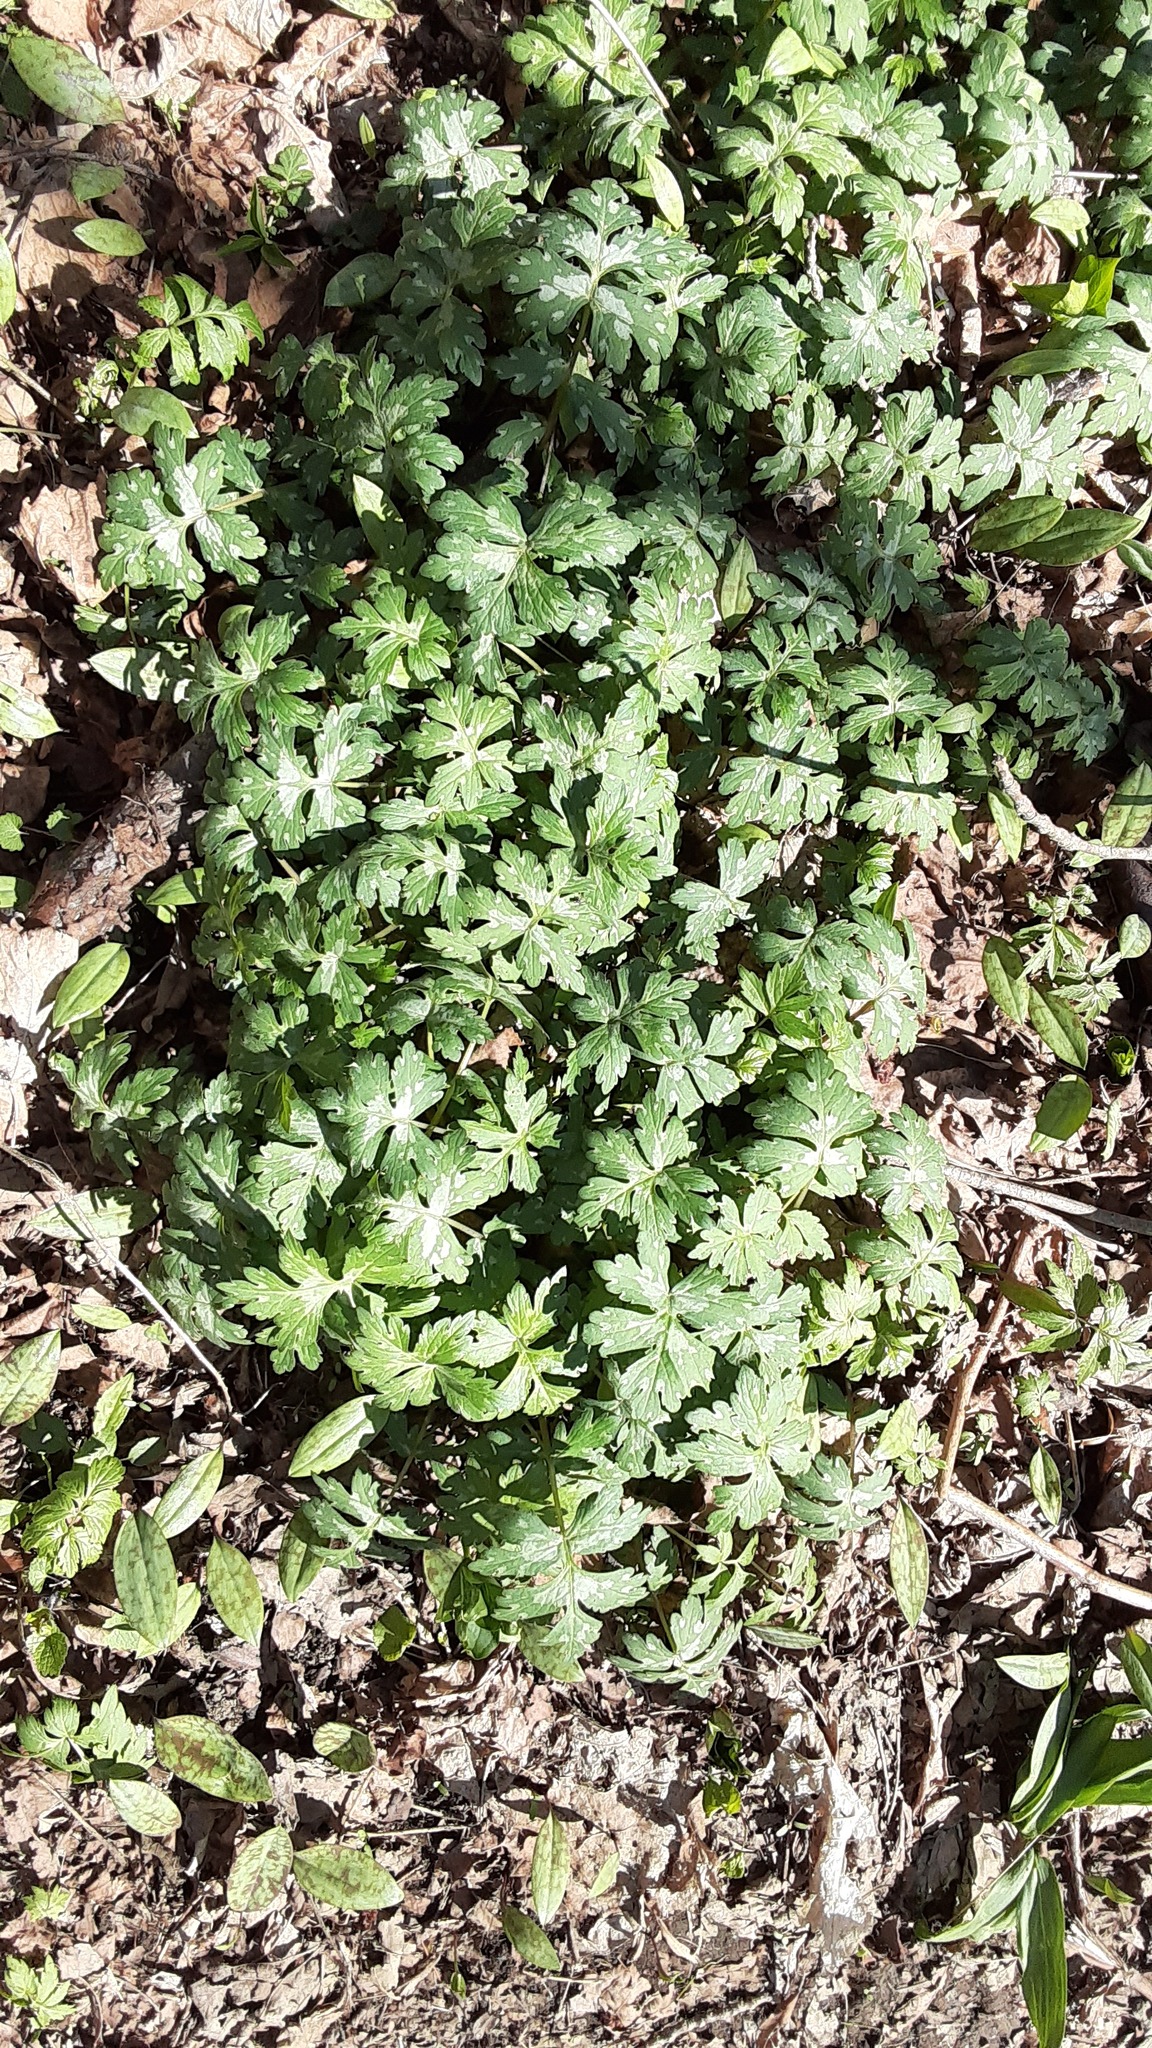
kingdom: Plantae
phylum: Tracheophyta
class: Magnoliopsida
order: Boraginales
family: Hydrophyllaceae
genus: Hydrophyllum
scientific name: Hydrophyllum virginianum
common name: Virginia waterleaf
